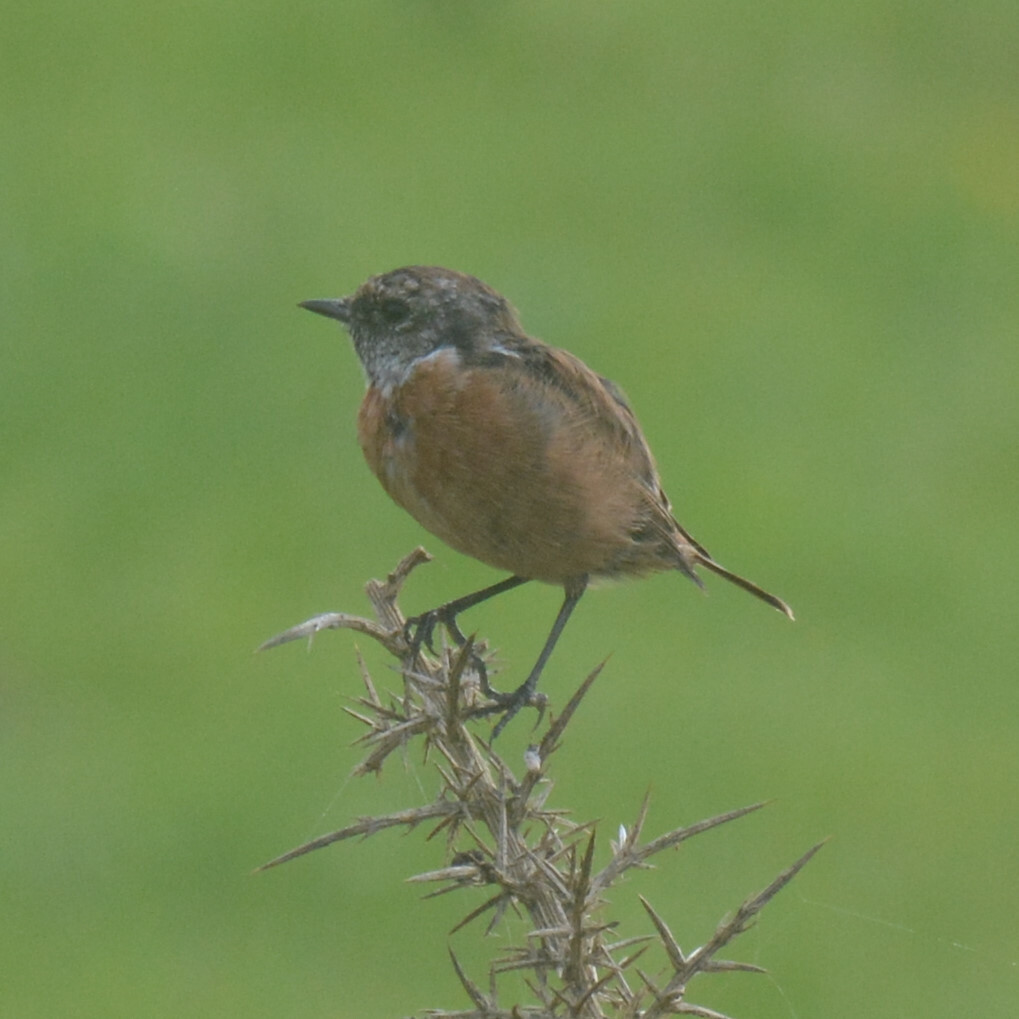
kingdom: Animalia
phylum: Chordata
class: Aves
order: Passeriformes
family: Muscicapidae
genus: Saxicola
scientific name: Saxicola rubicola
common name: European stonechat
